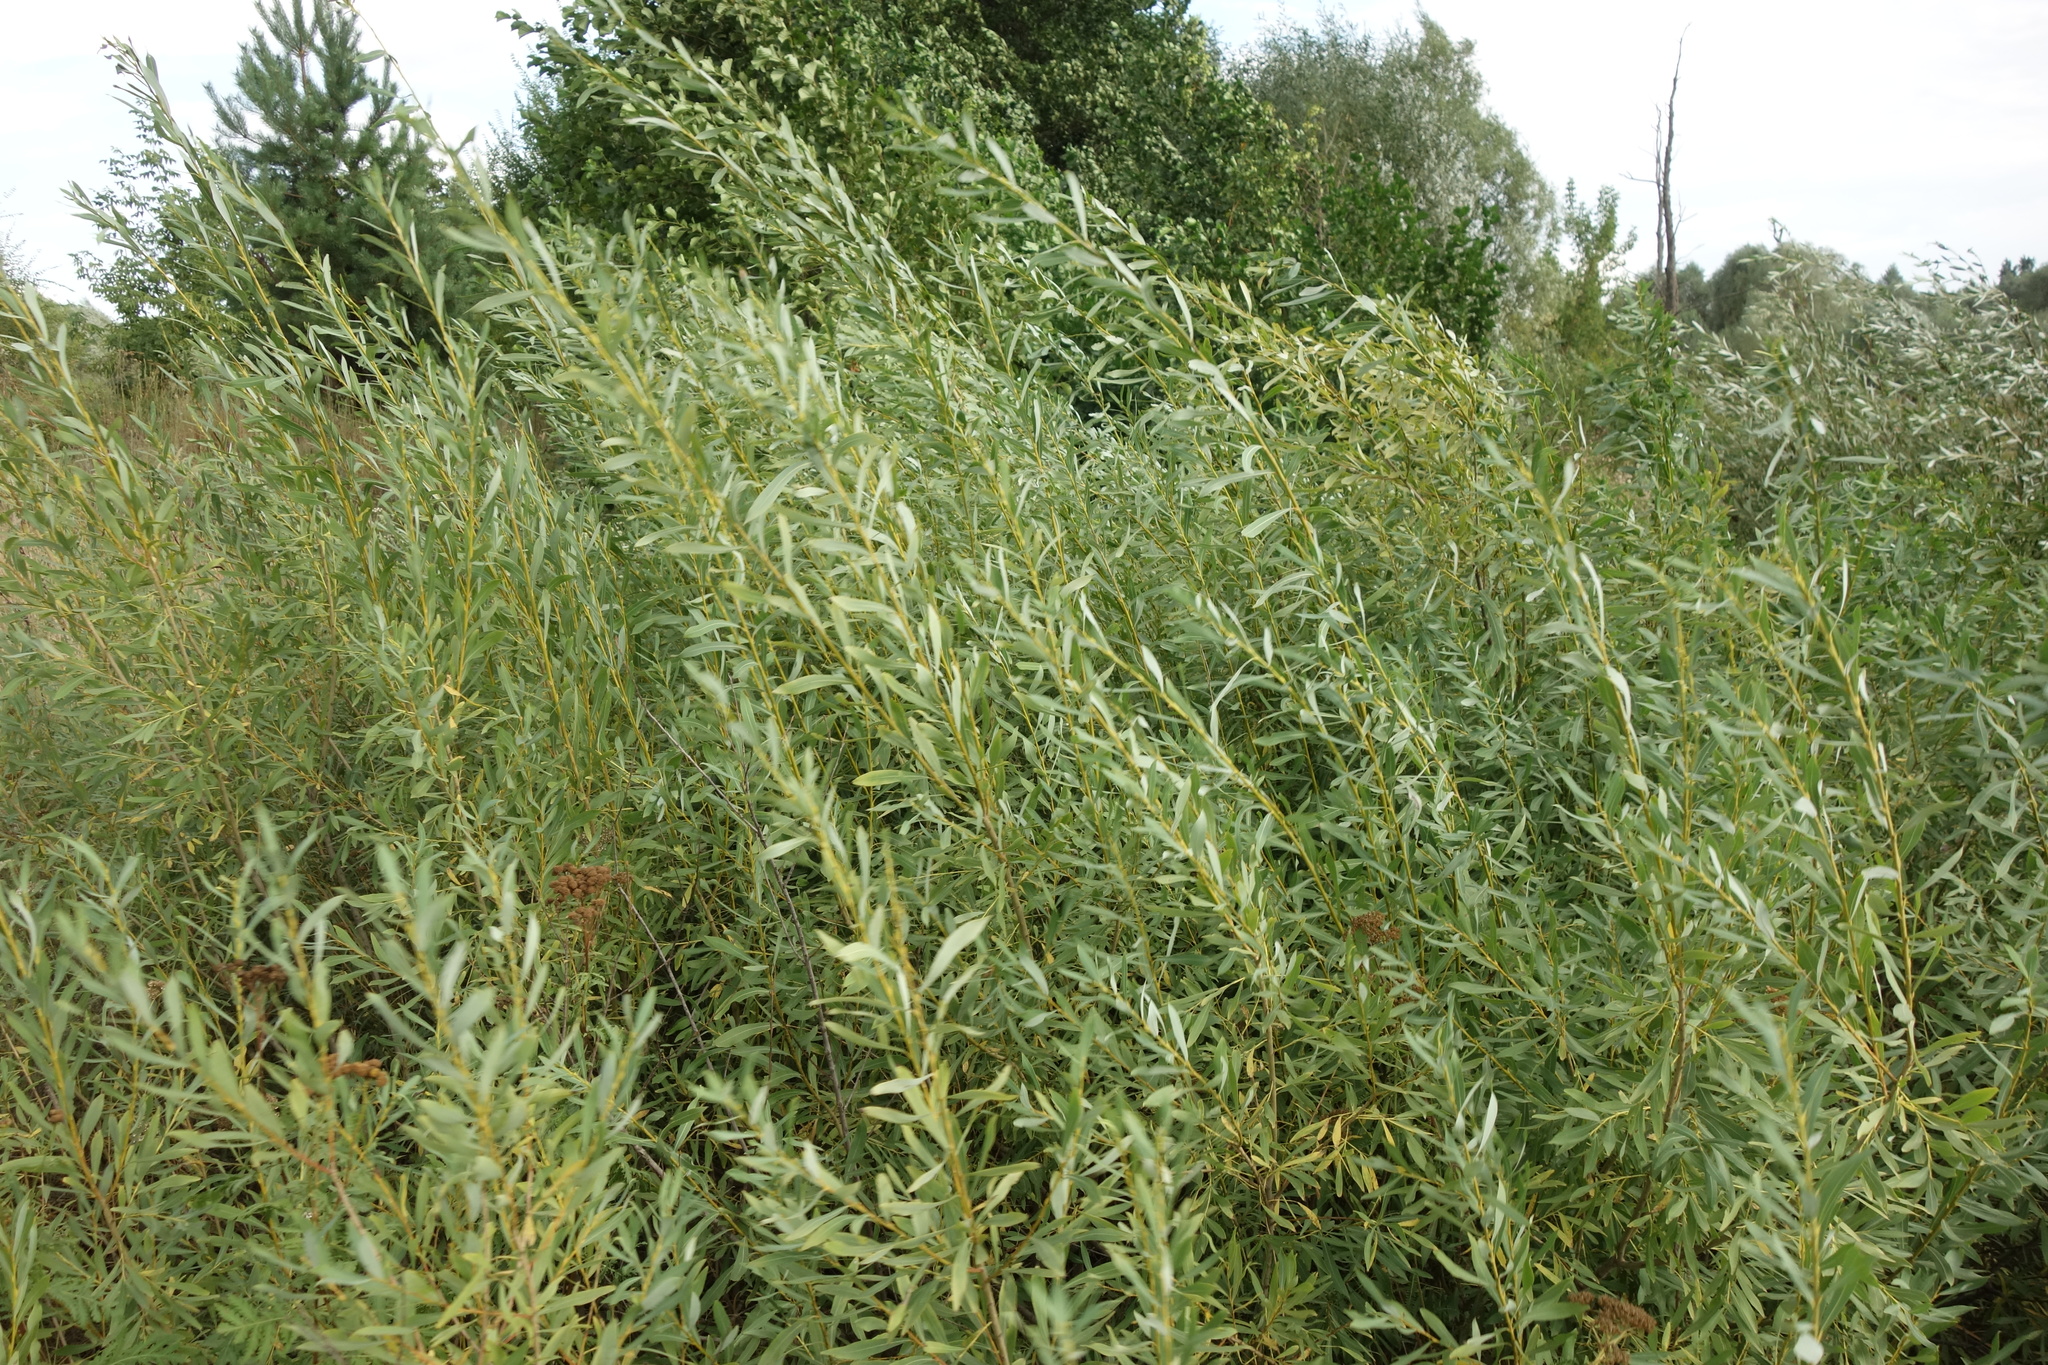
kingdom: Plantae
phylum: Tracheophyta
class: Magnoliopsida
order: Malpighiales
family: Salicaceae
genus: Salix
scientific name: Salix vinogradovii
